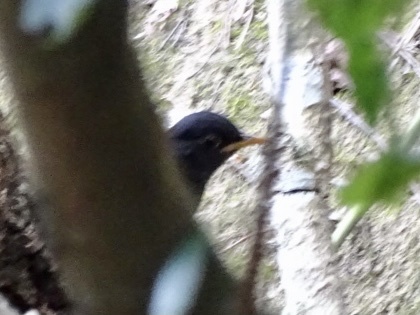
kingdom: Animalia
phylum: Chordata
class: Aves
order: Passeriformes
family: Turdidae
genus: Turdus
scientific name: Turdus mandarinus
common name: Chinese blackbird
